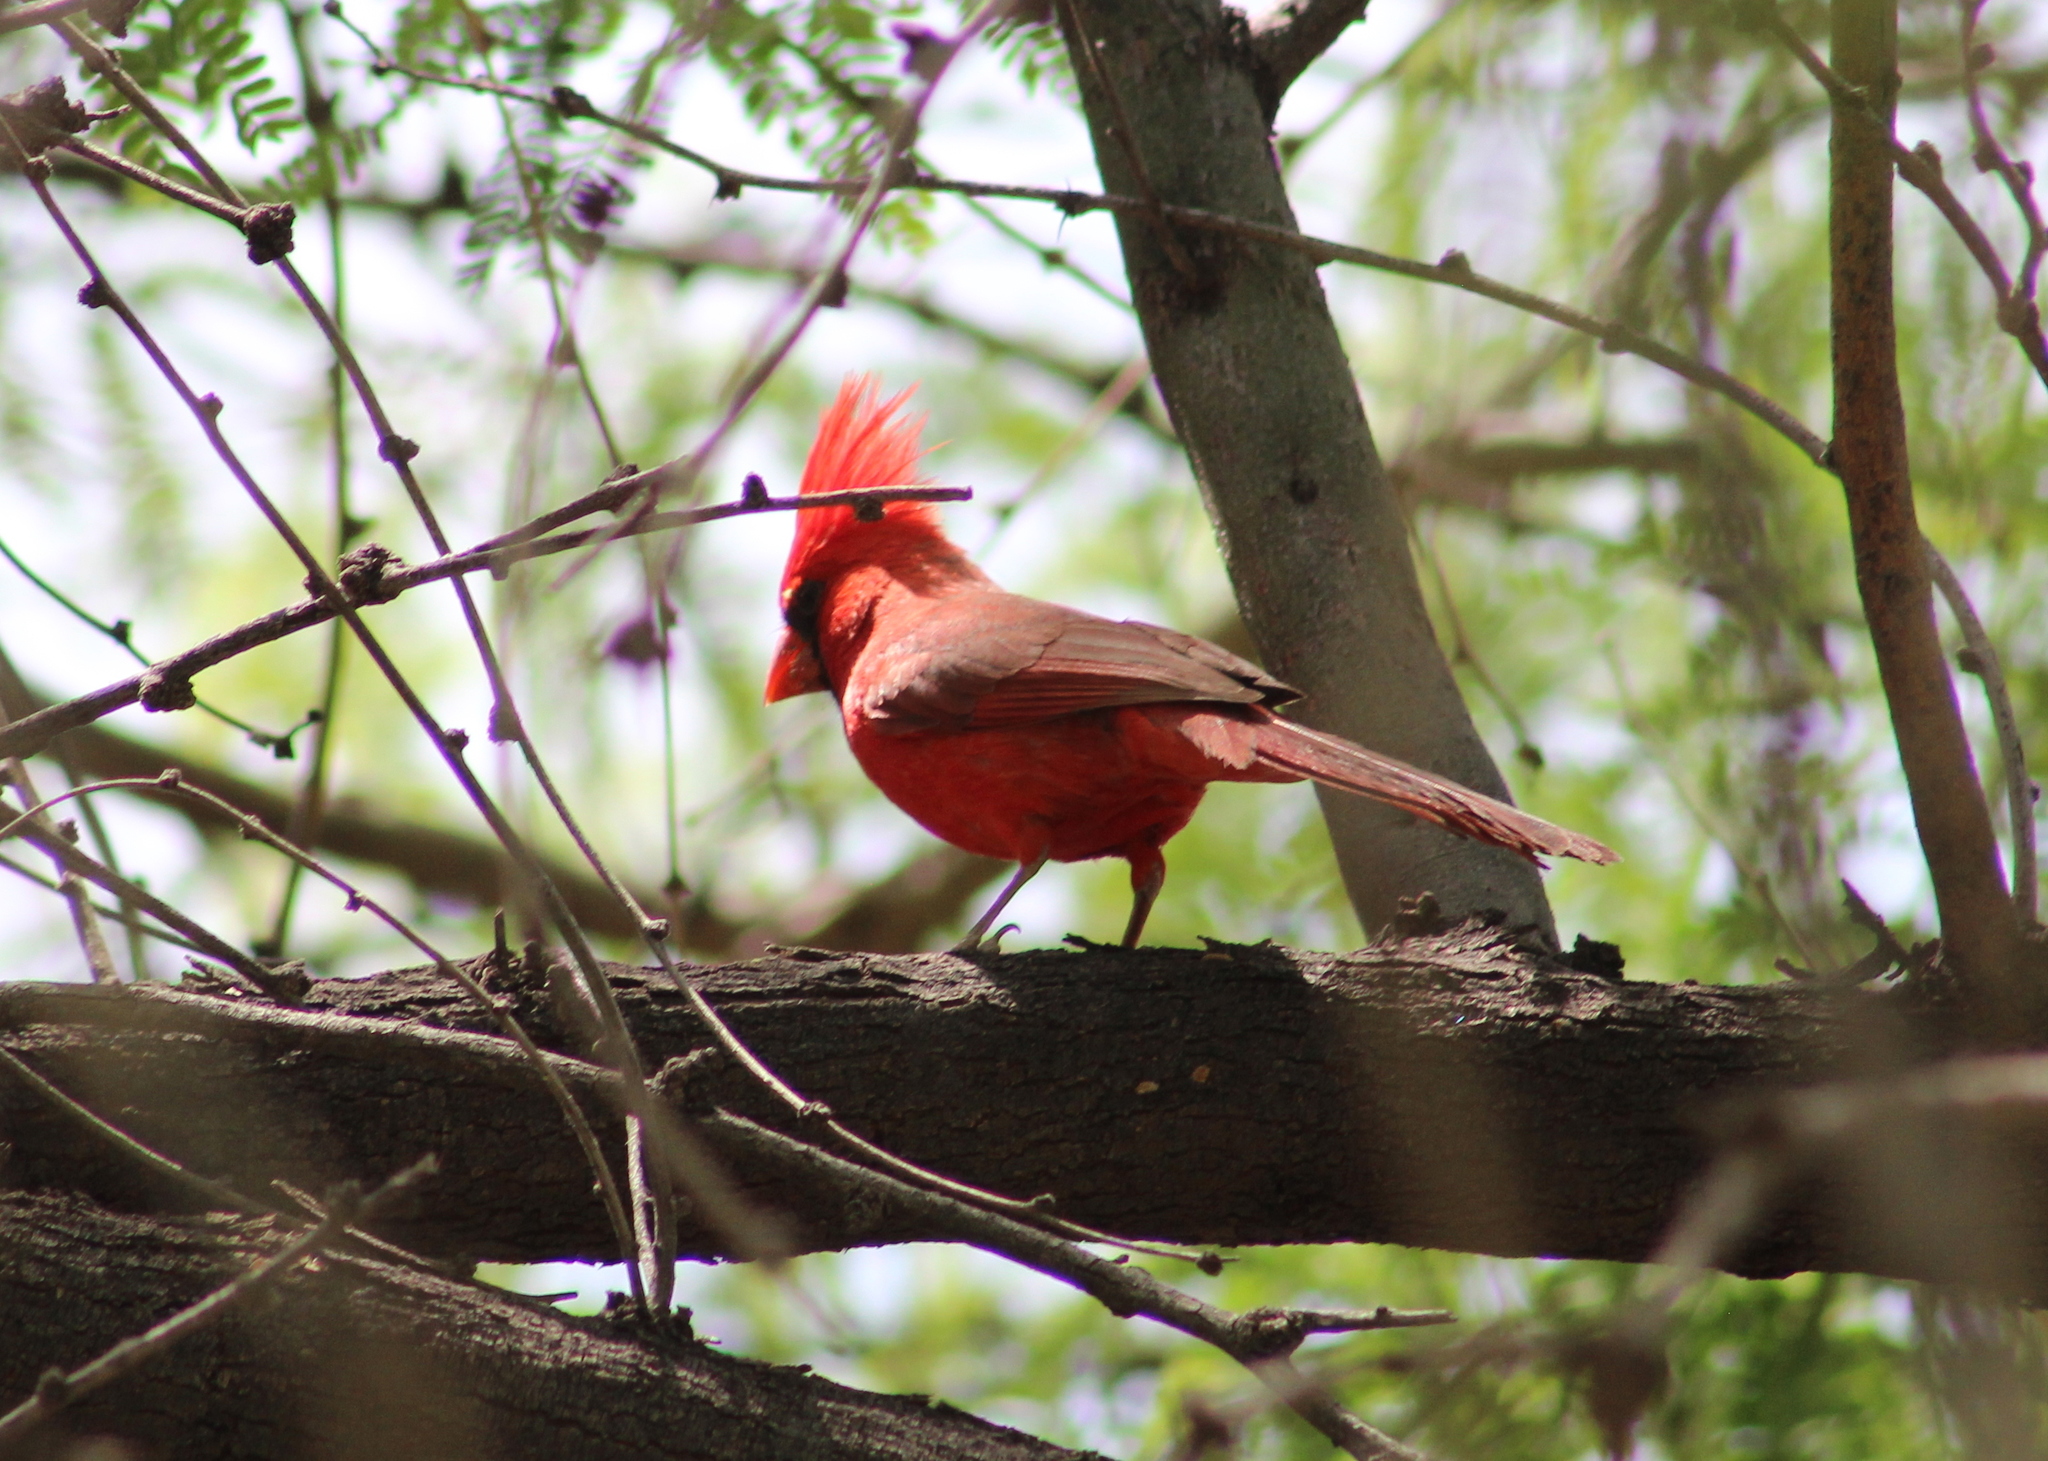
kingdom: Animalia
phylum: Chordata
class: Aves
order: Passeriformes
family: Cardinalidae
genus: Cardinalis
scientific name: Cardinalis cardinalis
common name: Northern cardinal
